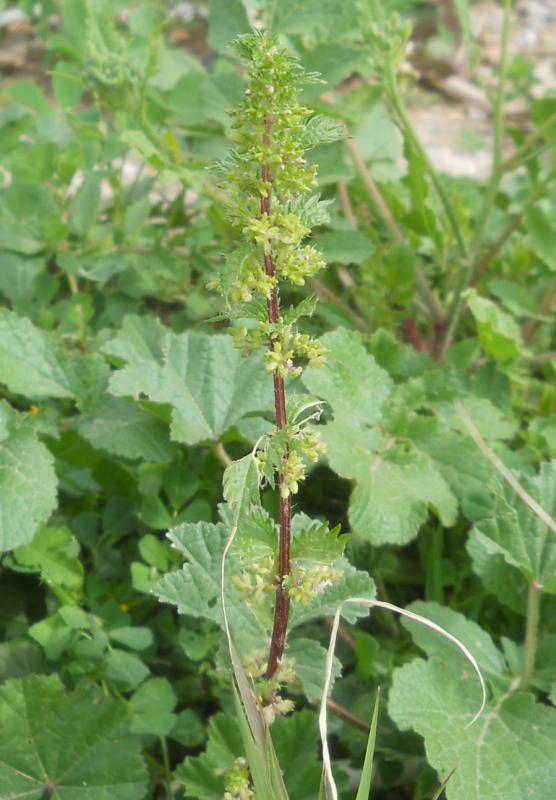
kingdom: Plantae
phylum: Tracheophyta
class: Magnoliopsida
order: Rosales
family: Urticaceae
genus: Urtica
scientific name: Urtica membranacea
